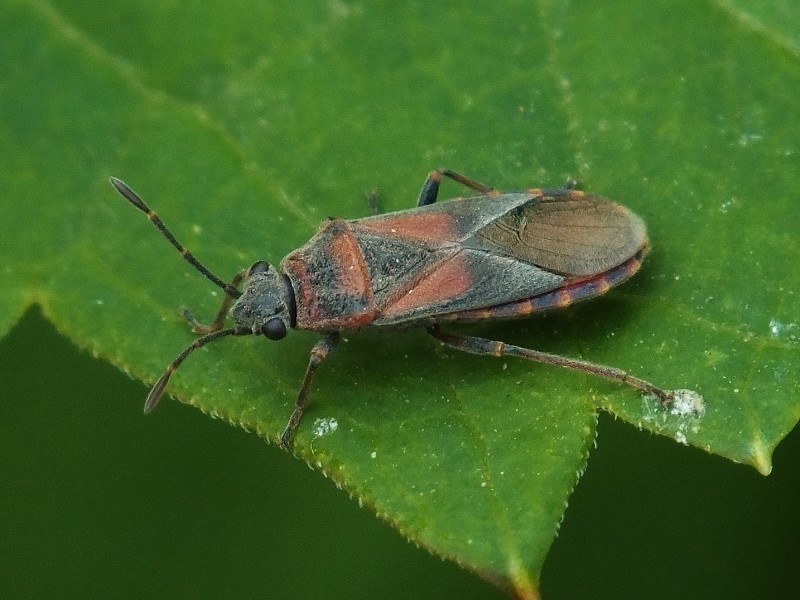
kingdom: Animalia
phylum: Arthropoda
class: Insecta
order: Hemiptera
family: Lygaeidae
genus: Arocatus
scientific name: Arocatus melanocephalus
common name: Lygaeid bug
